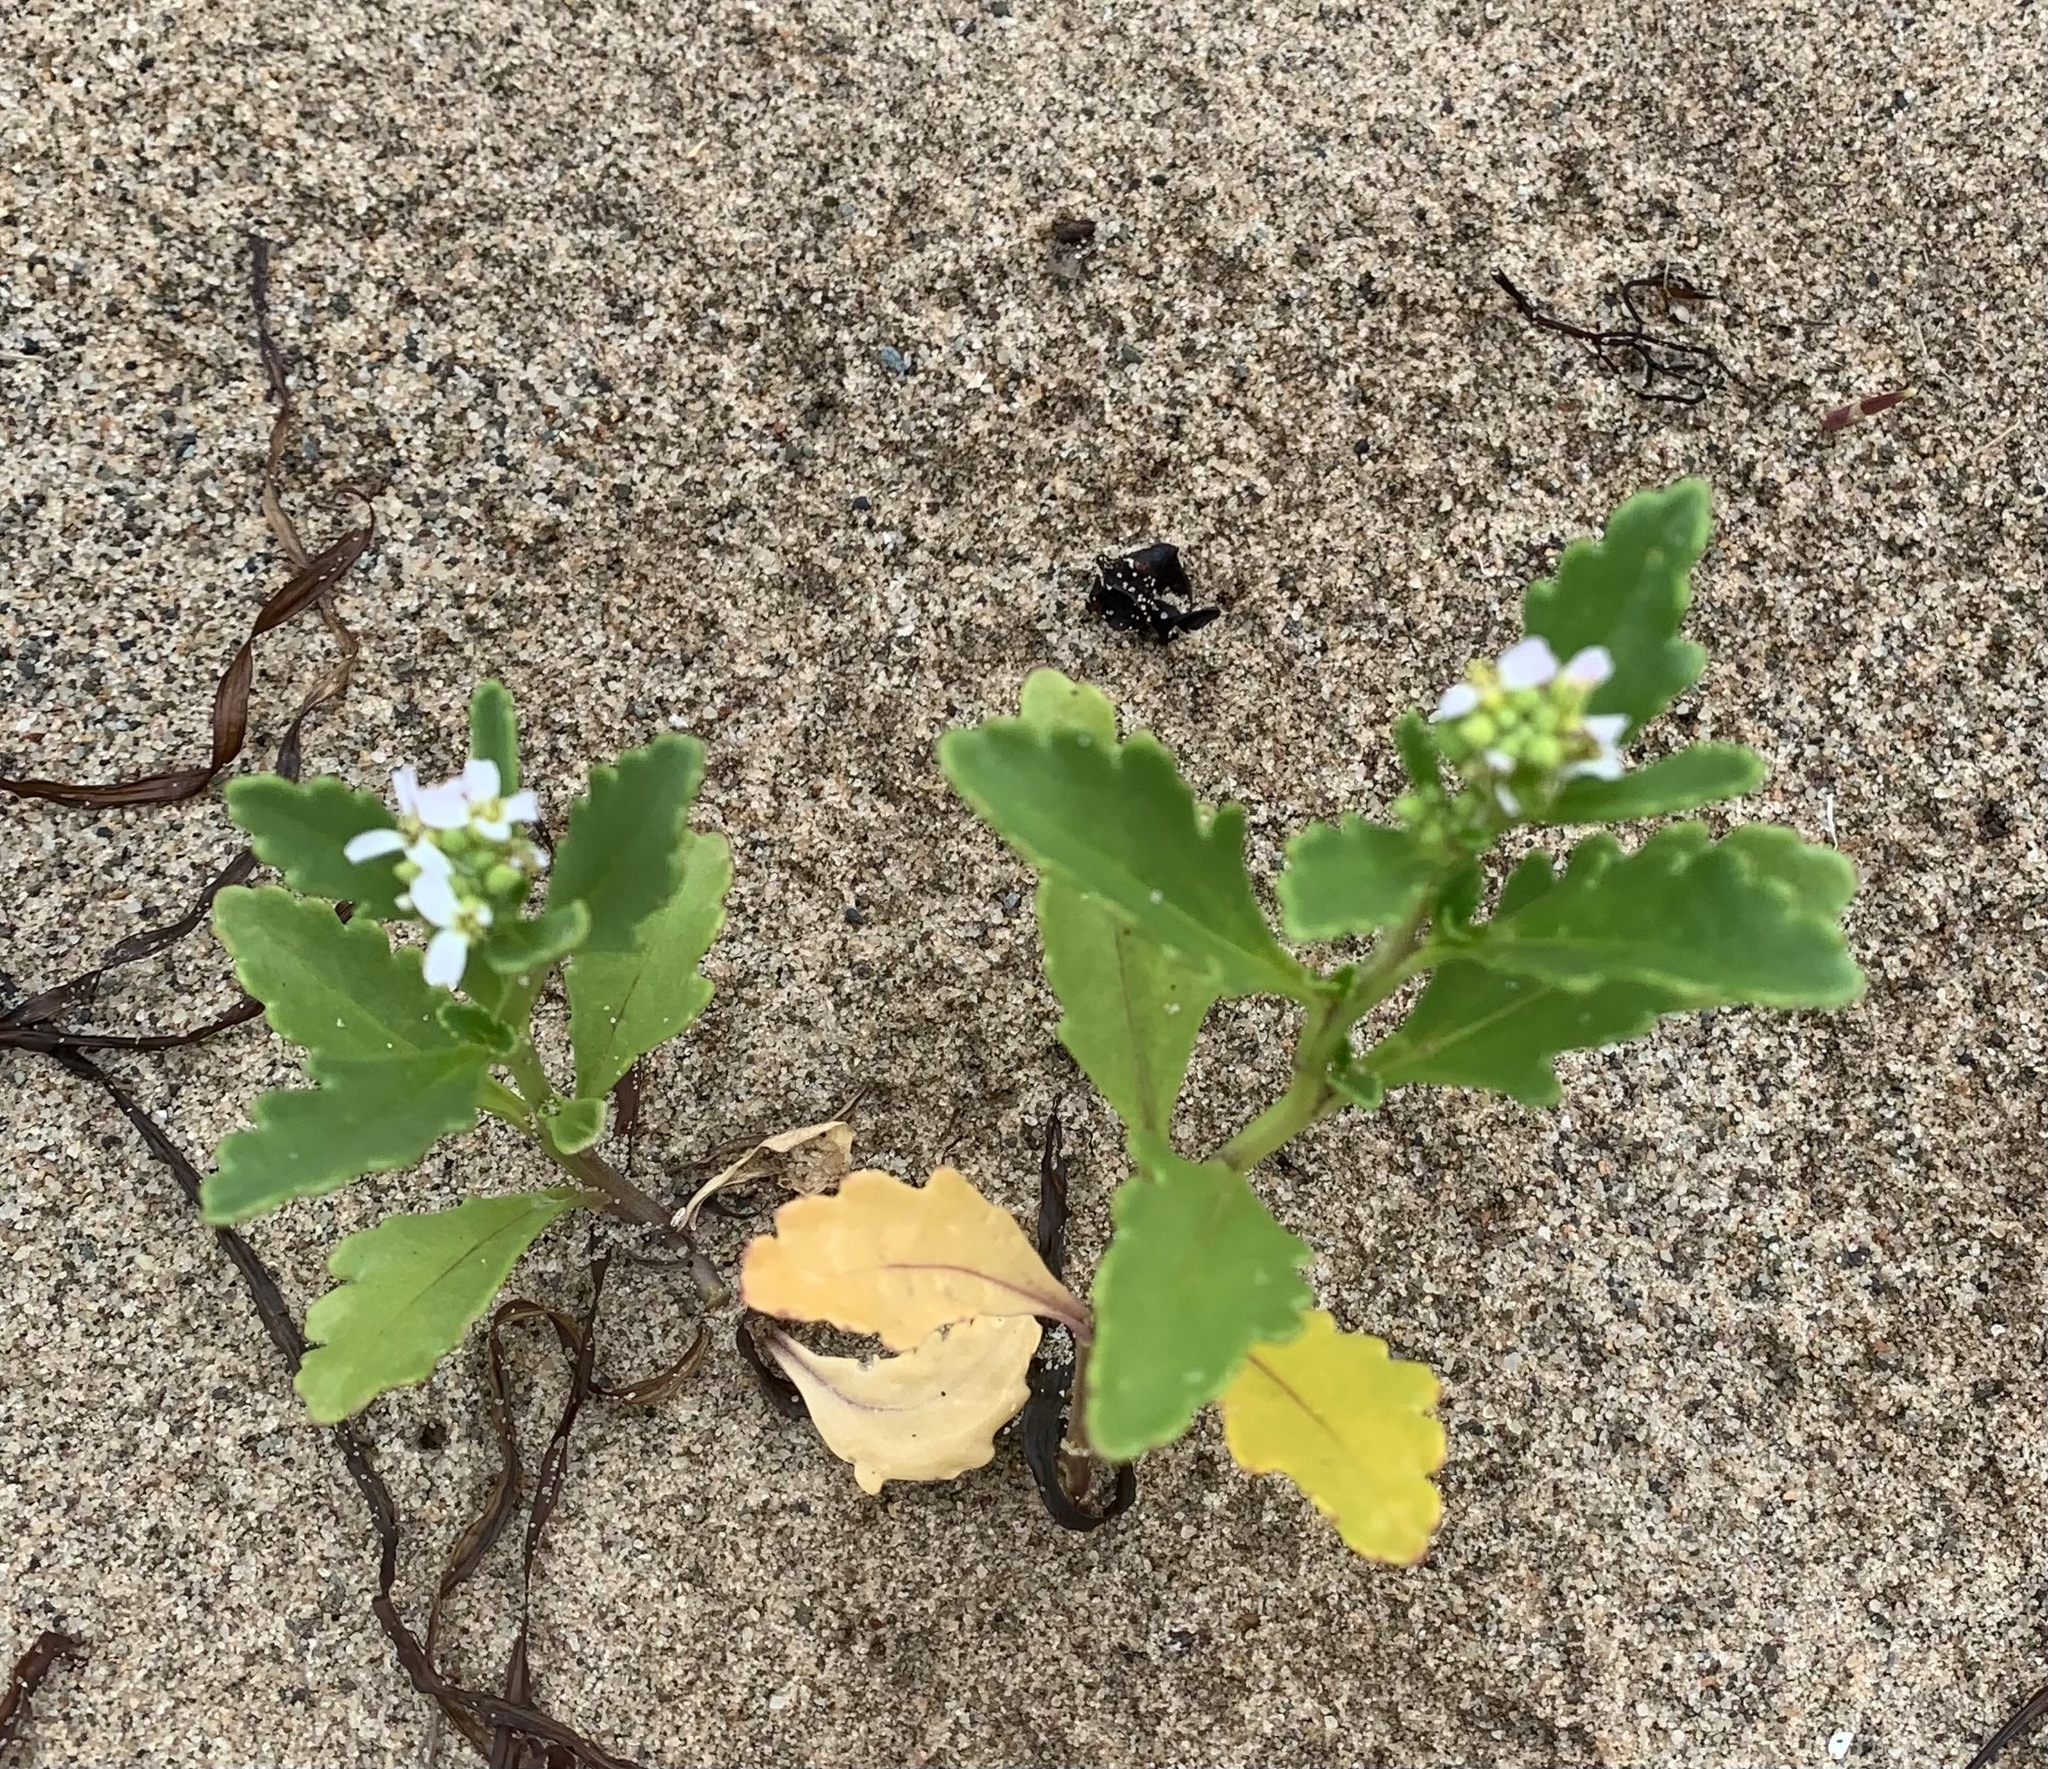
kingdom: Plantae
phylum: Tracheophyta
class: Magnoliopsida
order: Brassicales
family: Brassicaceae
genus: Cakile
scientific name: Cakile edentula
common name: American sea rocket
